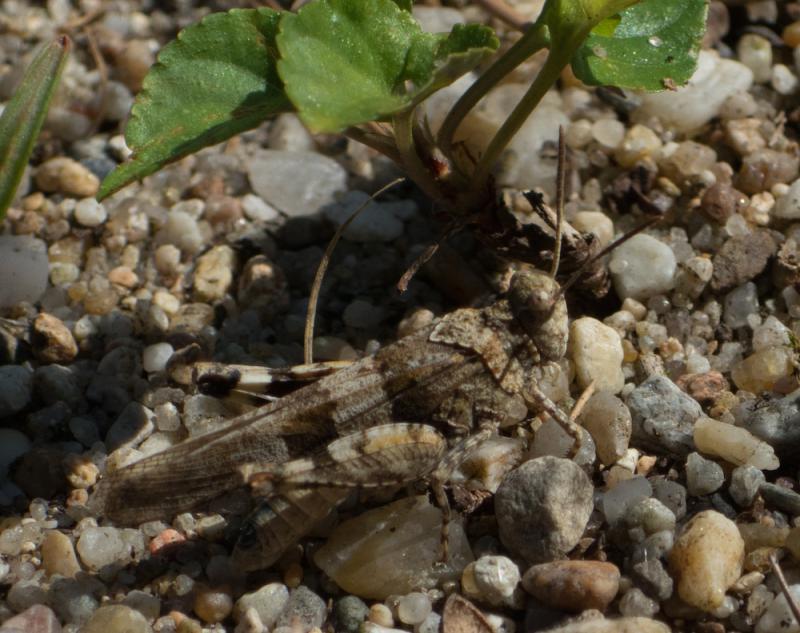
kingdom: Animalia
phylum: Arthropoda
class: Insecta
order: Orthoptera
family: Acrididae
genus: Oedipoda
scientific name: Oedipoda caerulescens
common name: Blue-winged grasshopper
